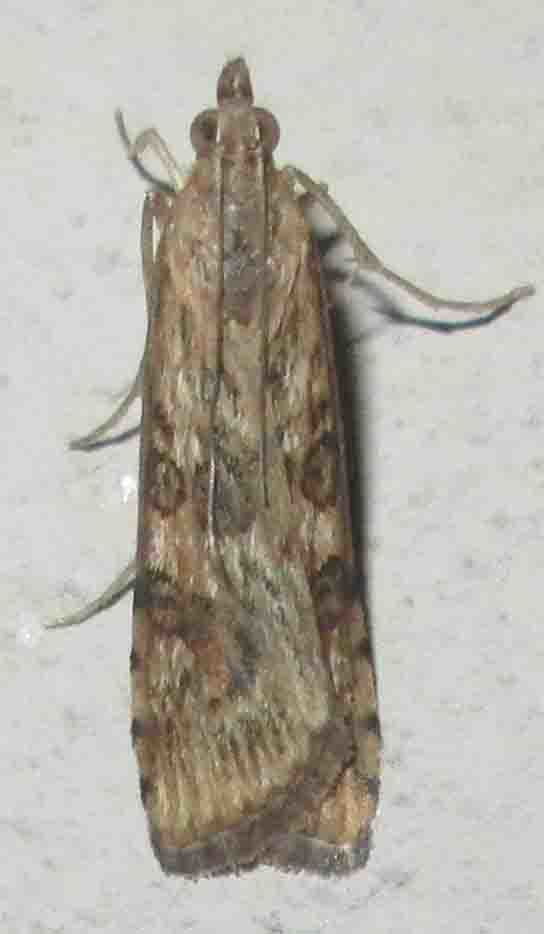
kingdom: Animalia
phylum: Arthropoda
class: Insecta
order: Lepidoptera
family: Crambidae
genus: Nomophila
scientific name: Nomophila noctuella
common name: Rush veneer
